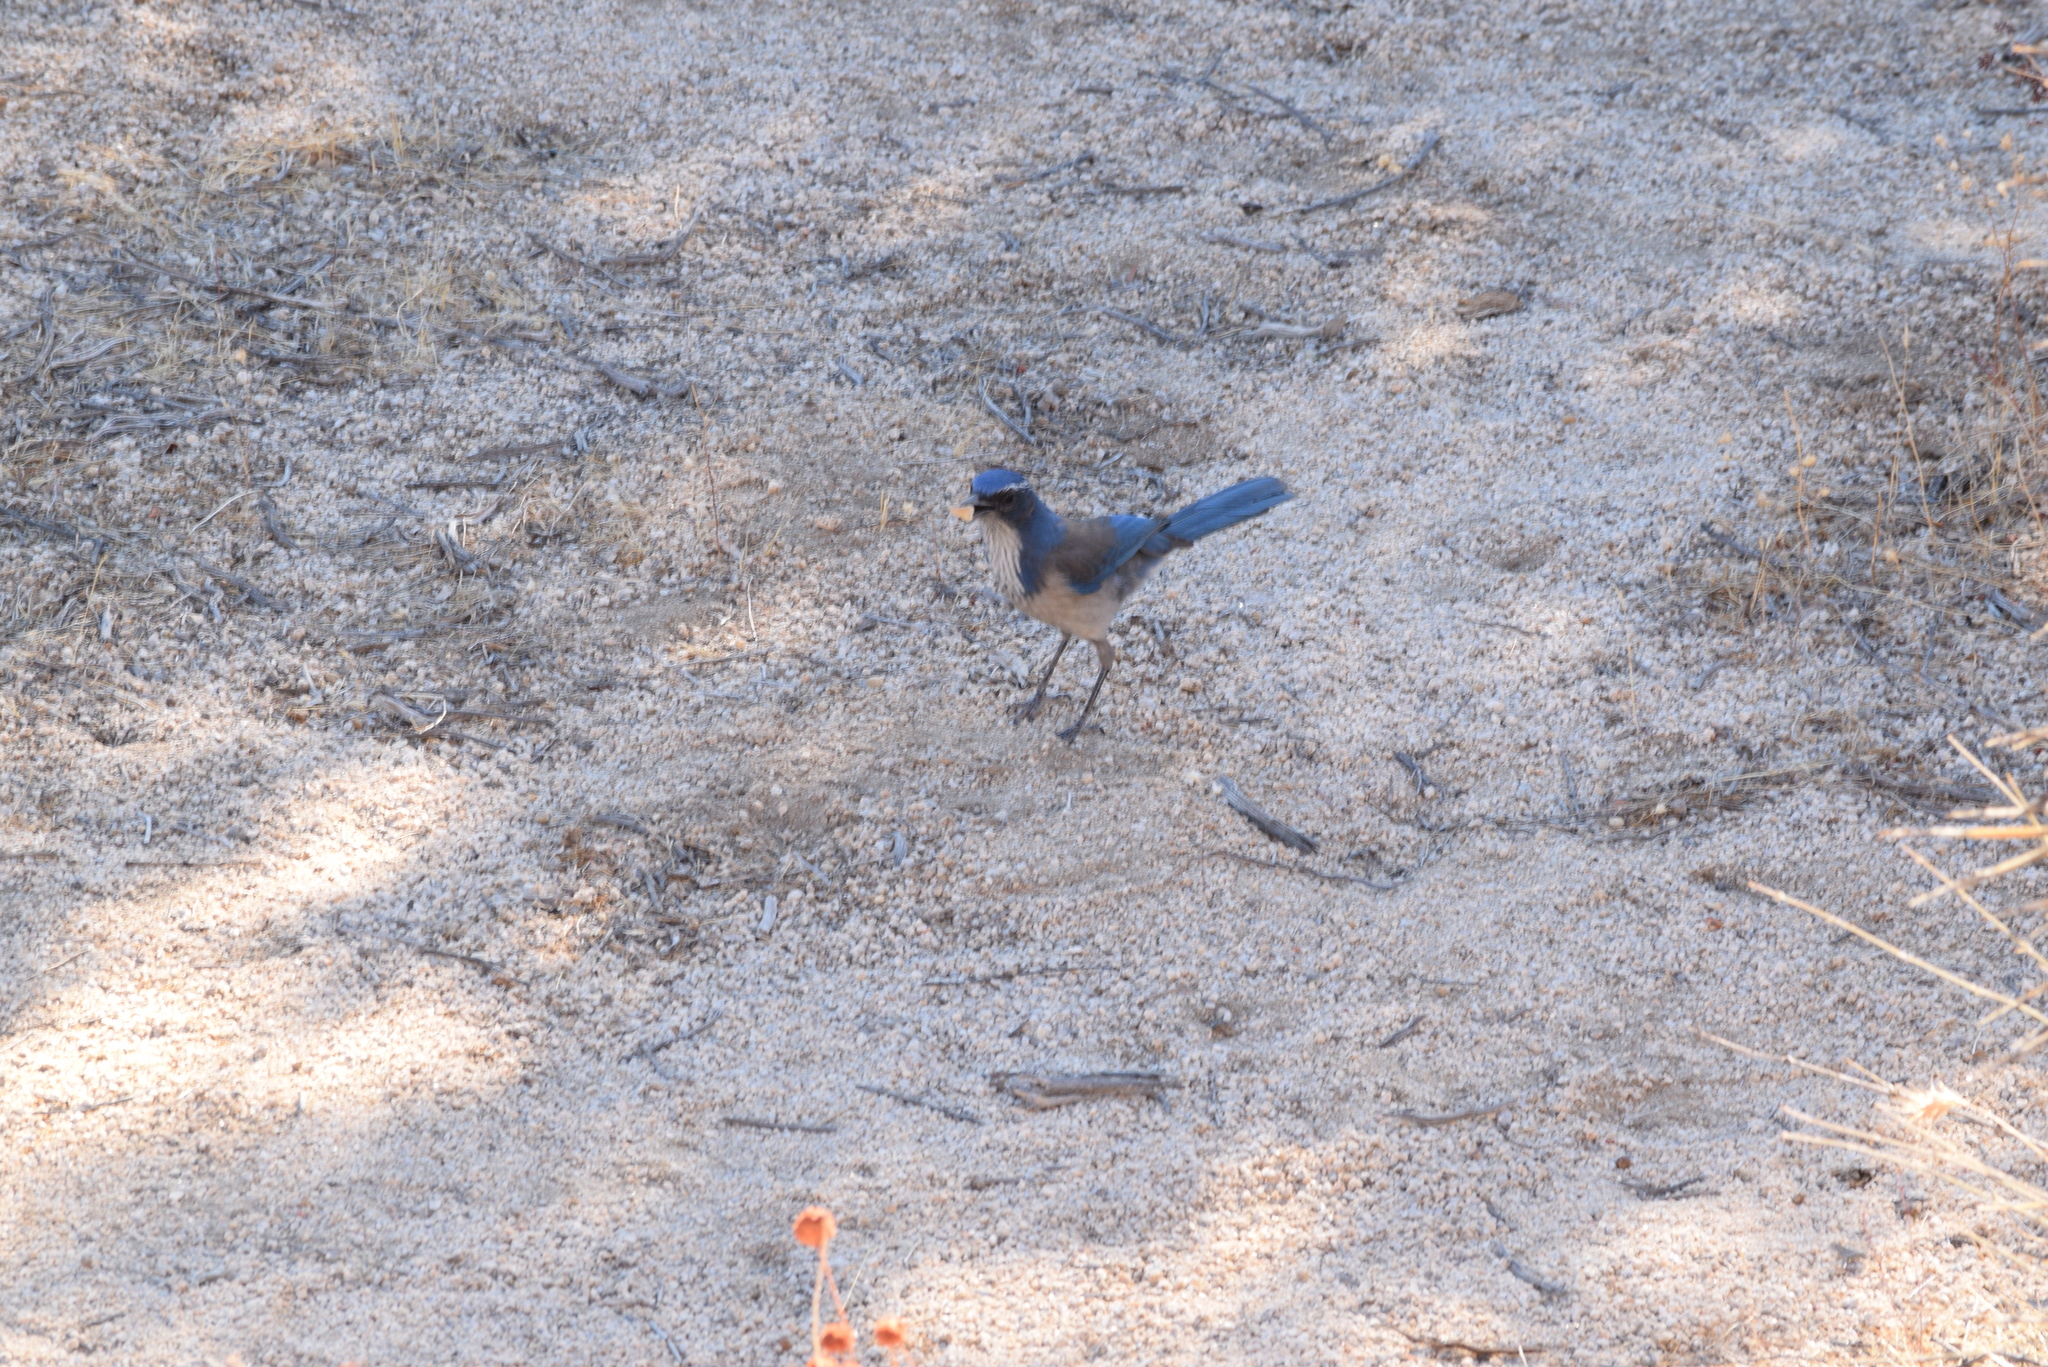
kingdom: Animalia
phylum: Chordata
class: Aves
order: Passeriformes
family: Corvidae
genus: Aphelocoma
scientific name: Aphelocoma californica
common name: California scrub-jay
